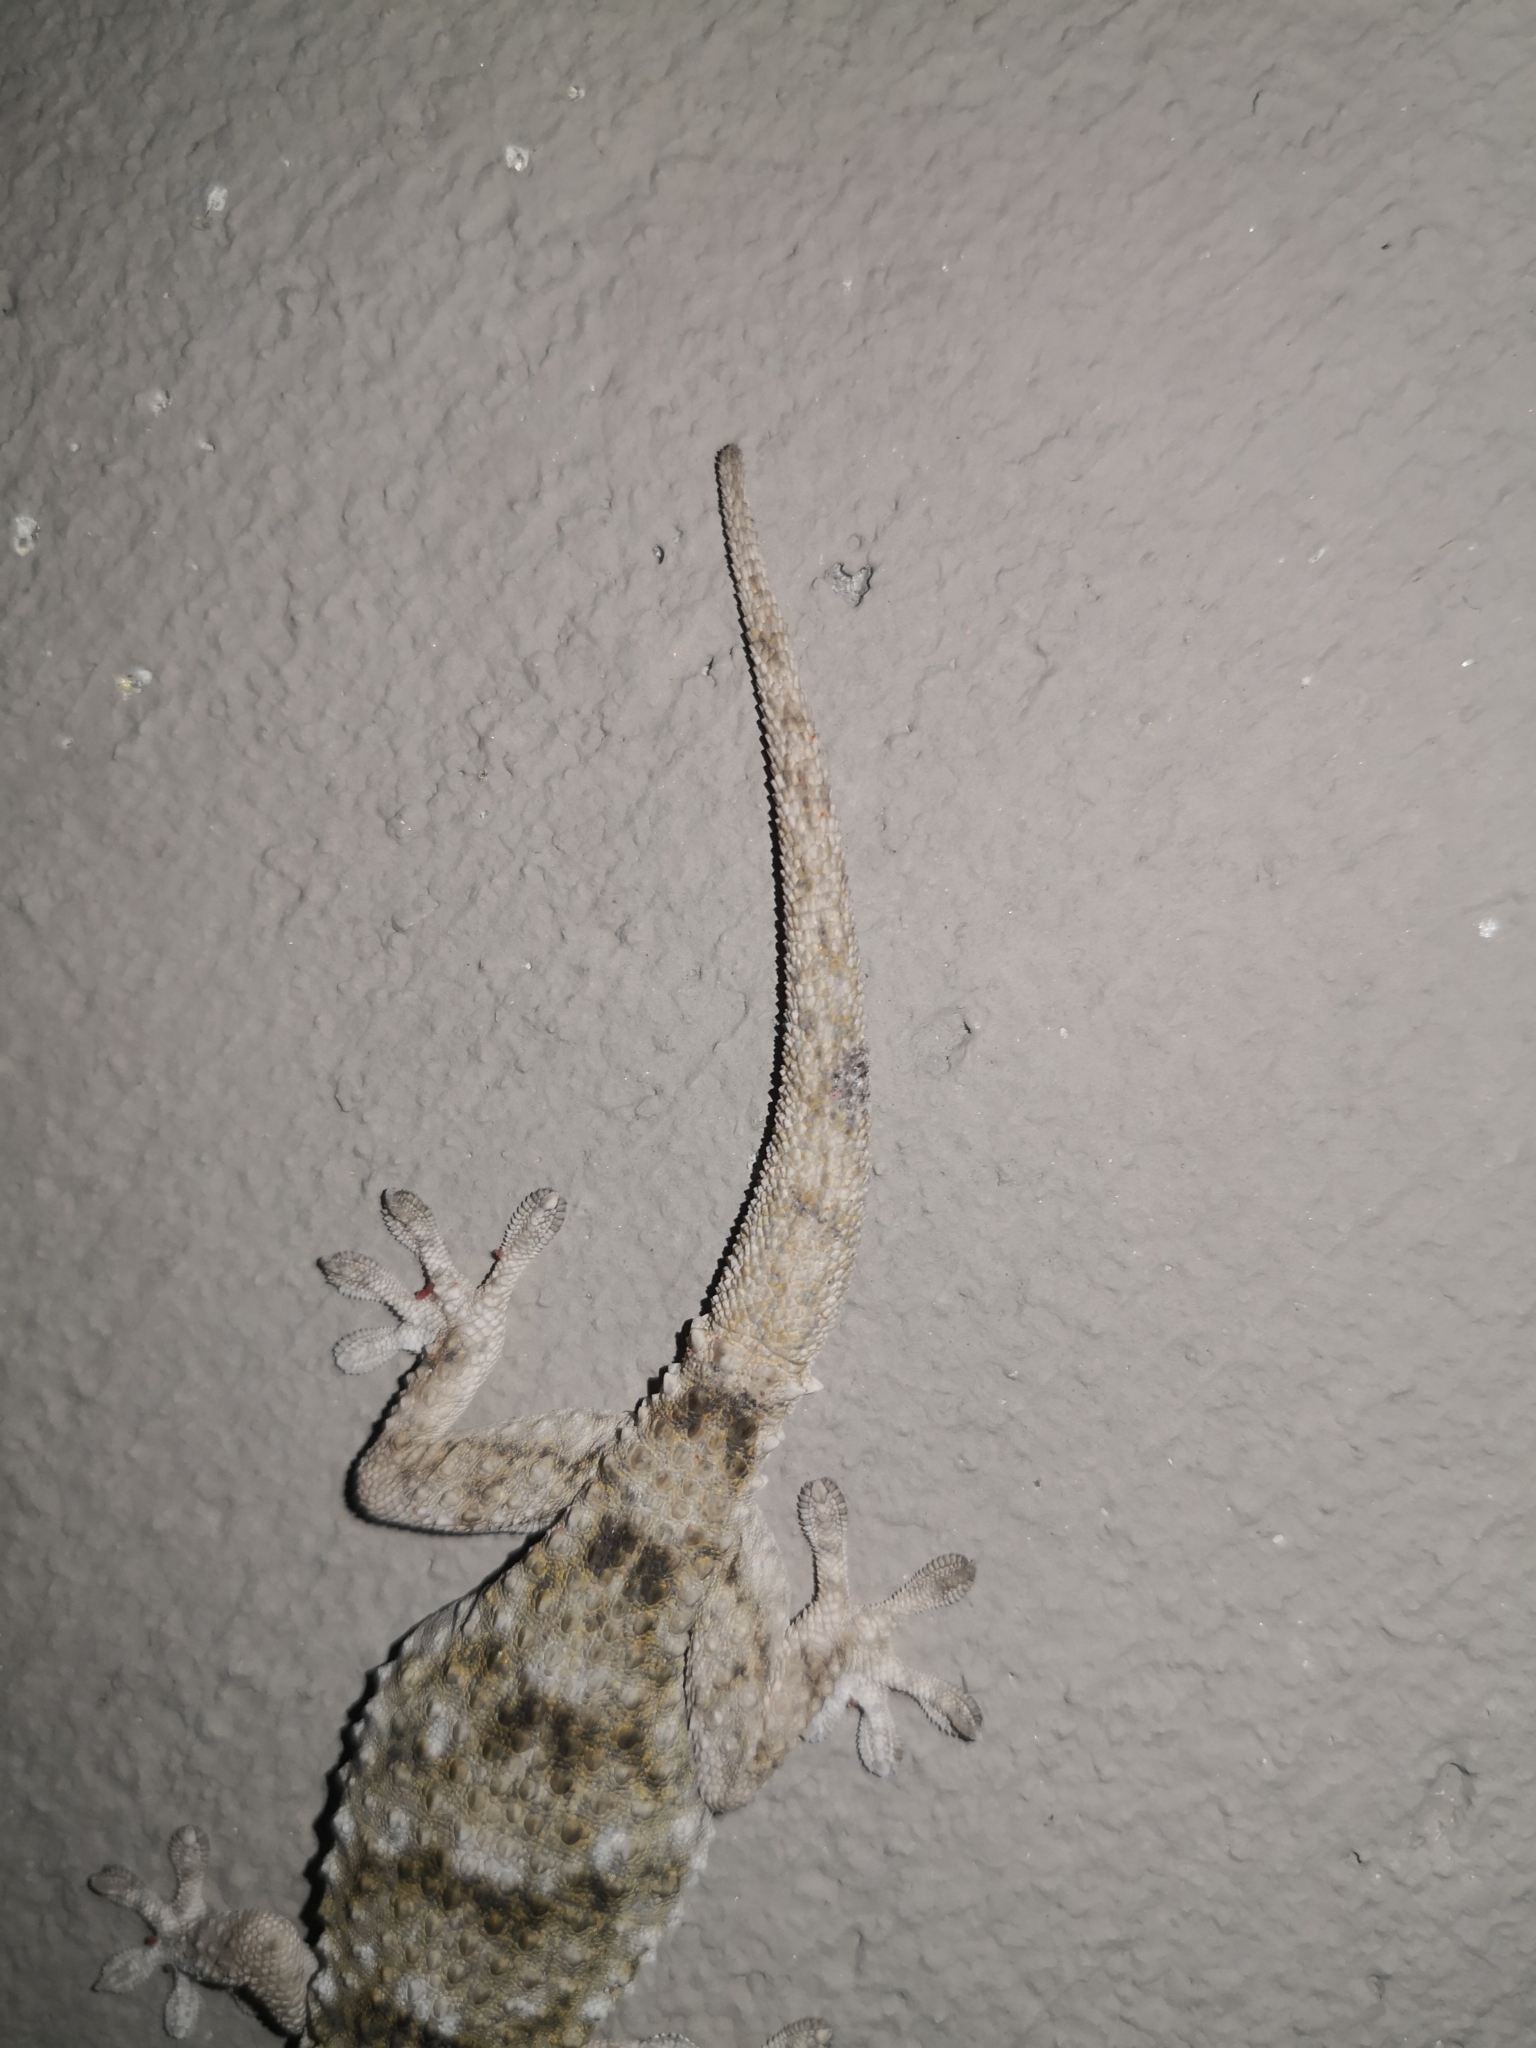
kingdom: Animalia
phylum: Chordata
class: Squamata
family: Phyllodactylidae
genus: Tarentola
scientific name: Tarentola mauritanica
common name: Moorish gecko
